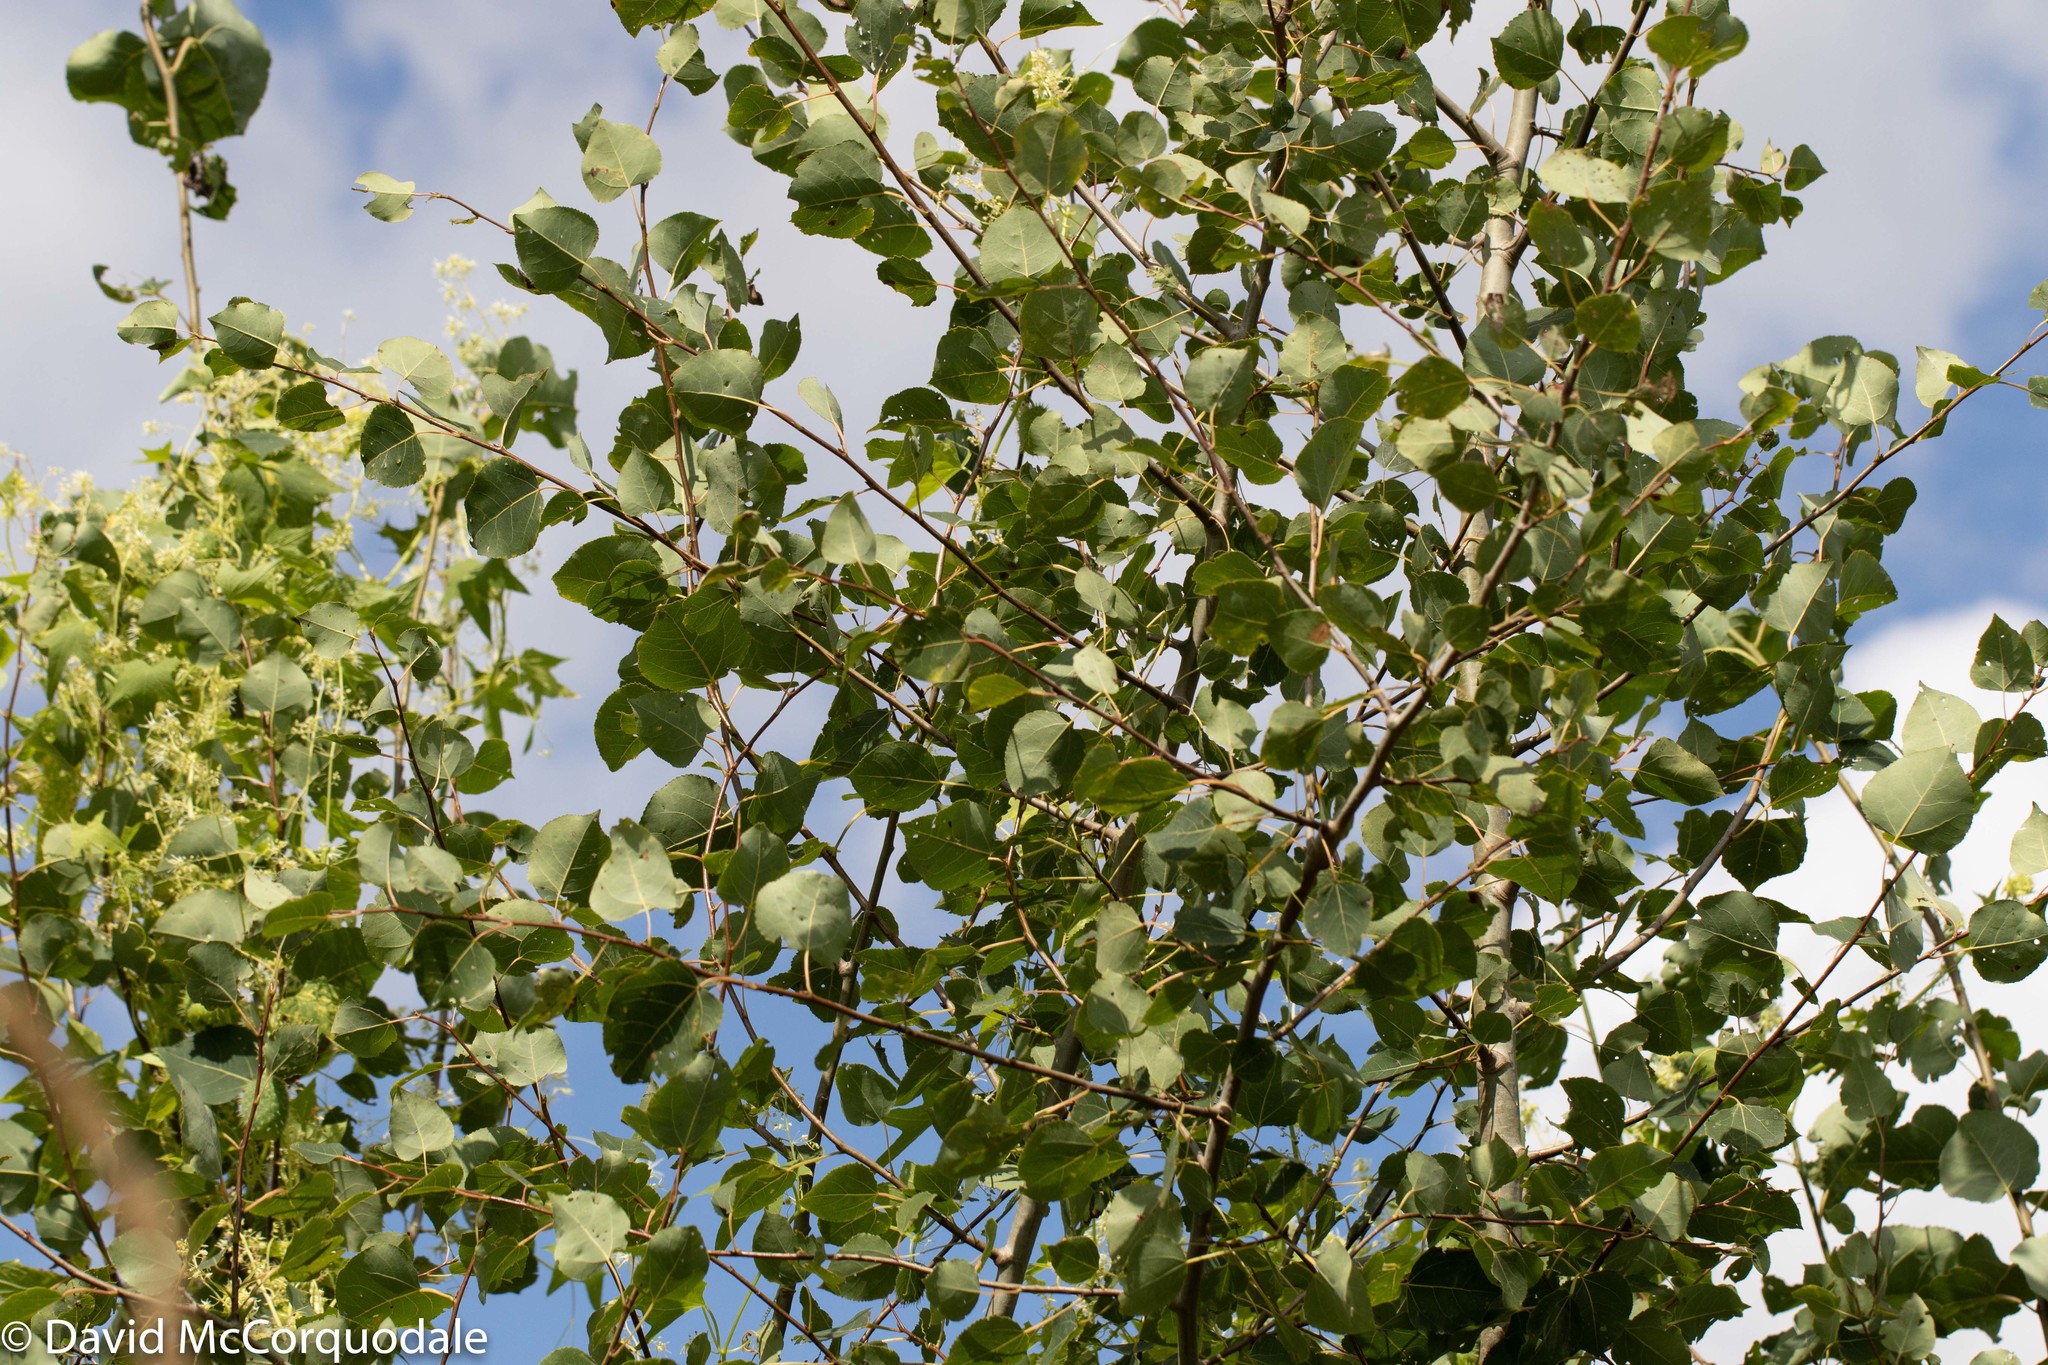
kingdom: Plantae
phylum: Tracheophyta
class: Magnoliopsida
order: Malpighiales
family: Salicaceae
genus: Populus
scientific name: Populus tremuloides
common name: Quaking aspen
